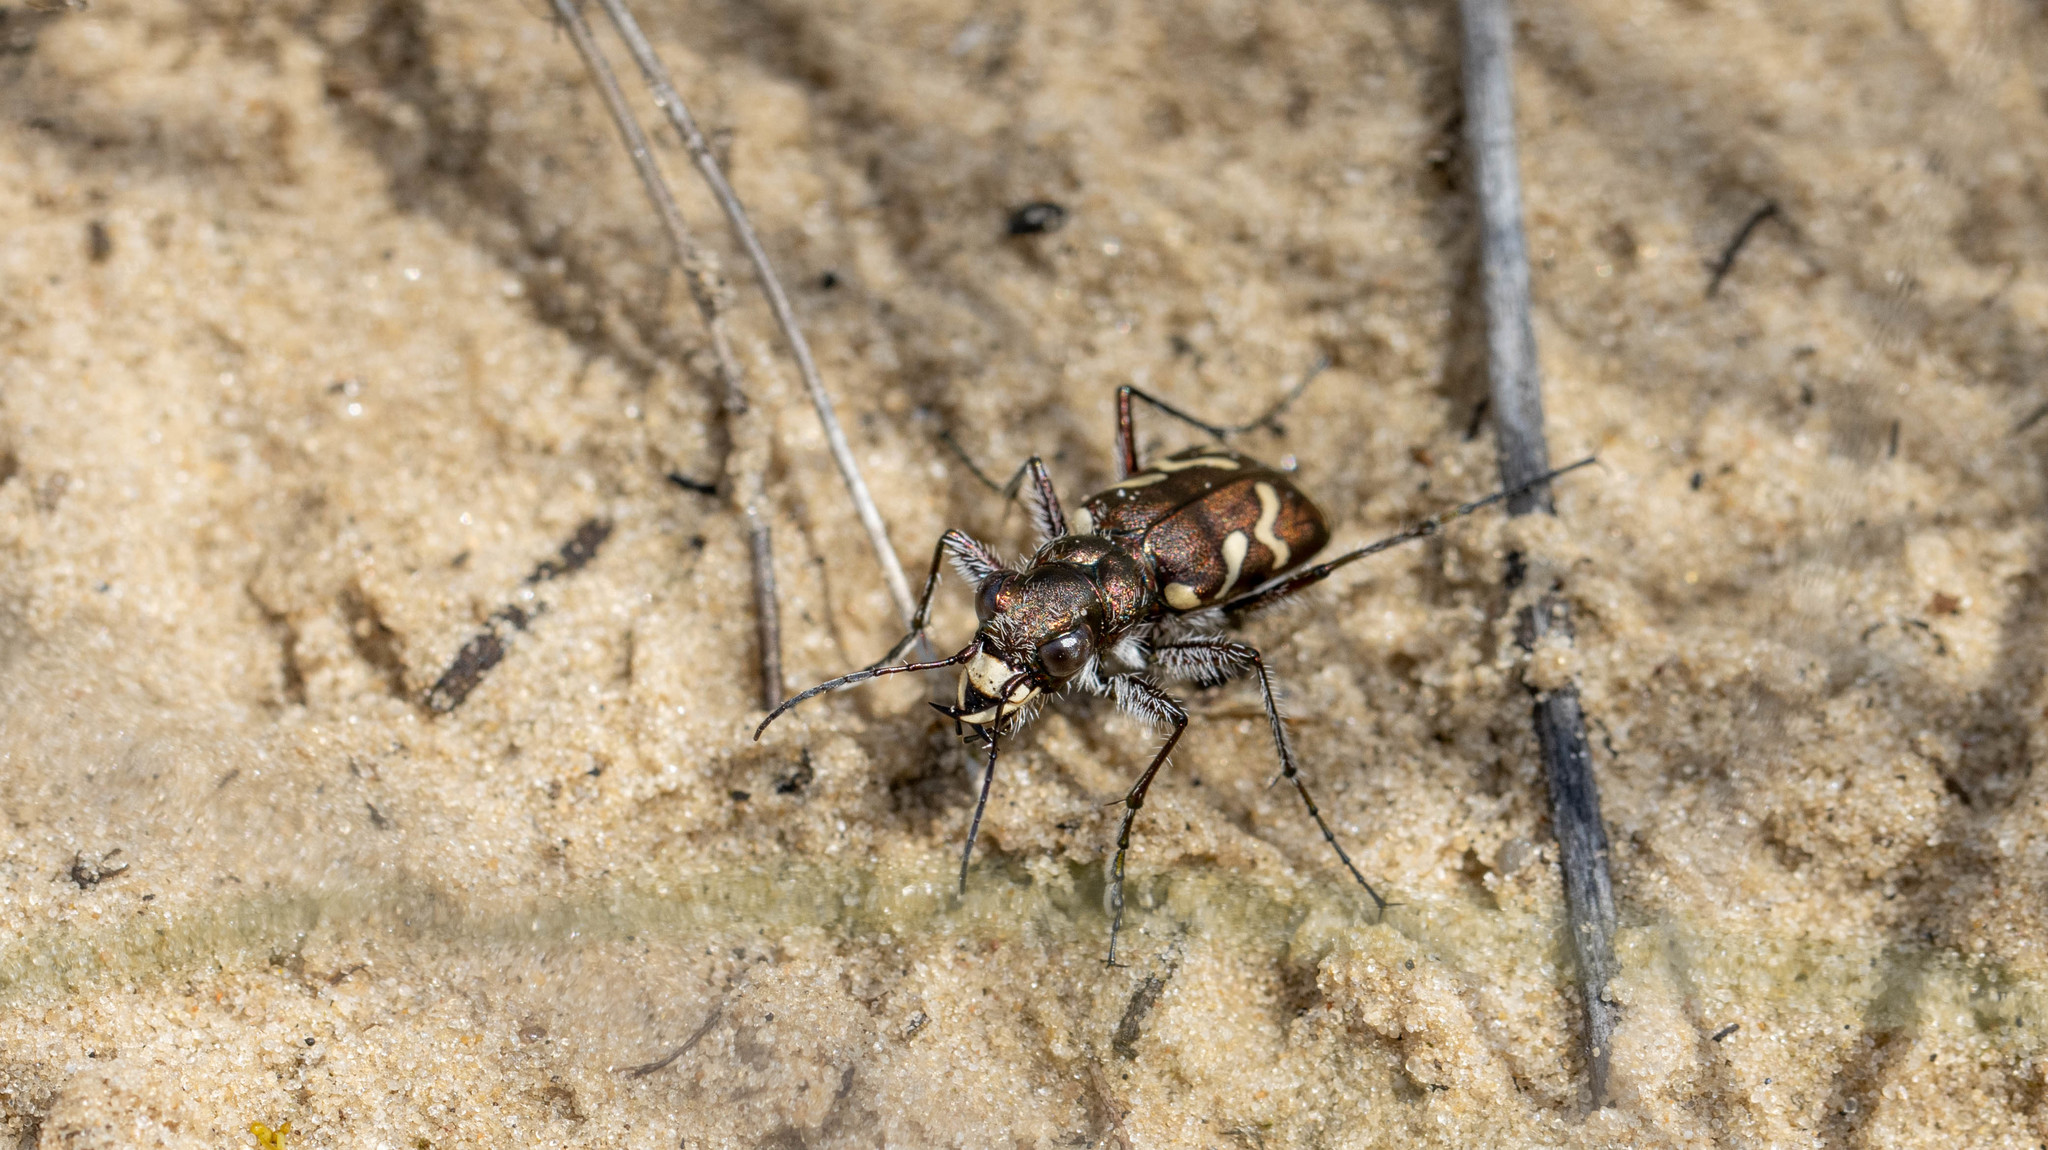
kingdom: Animalia
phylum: Arthropoda
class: Insecta
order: Coleoptera
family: Carabidae
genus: Cicindela
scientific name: Cicindela nordmanni
